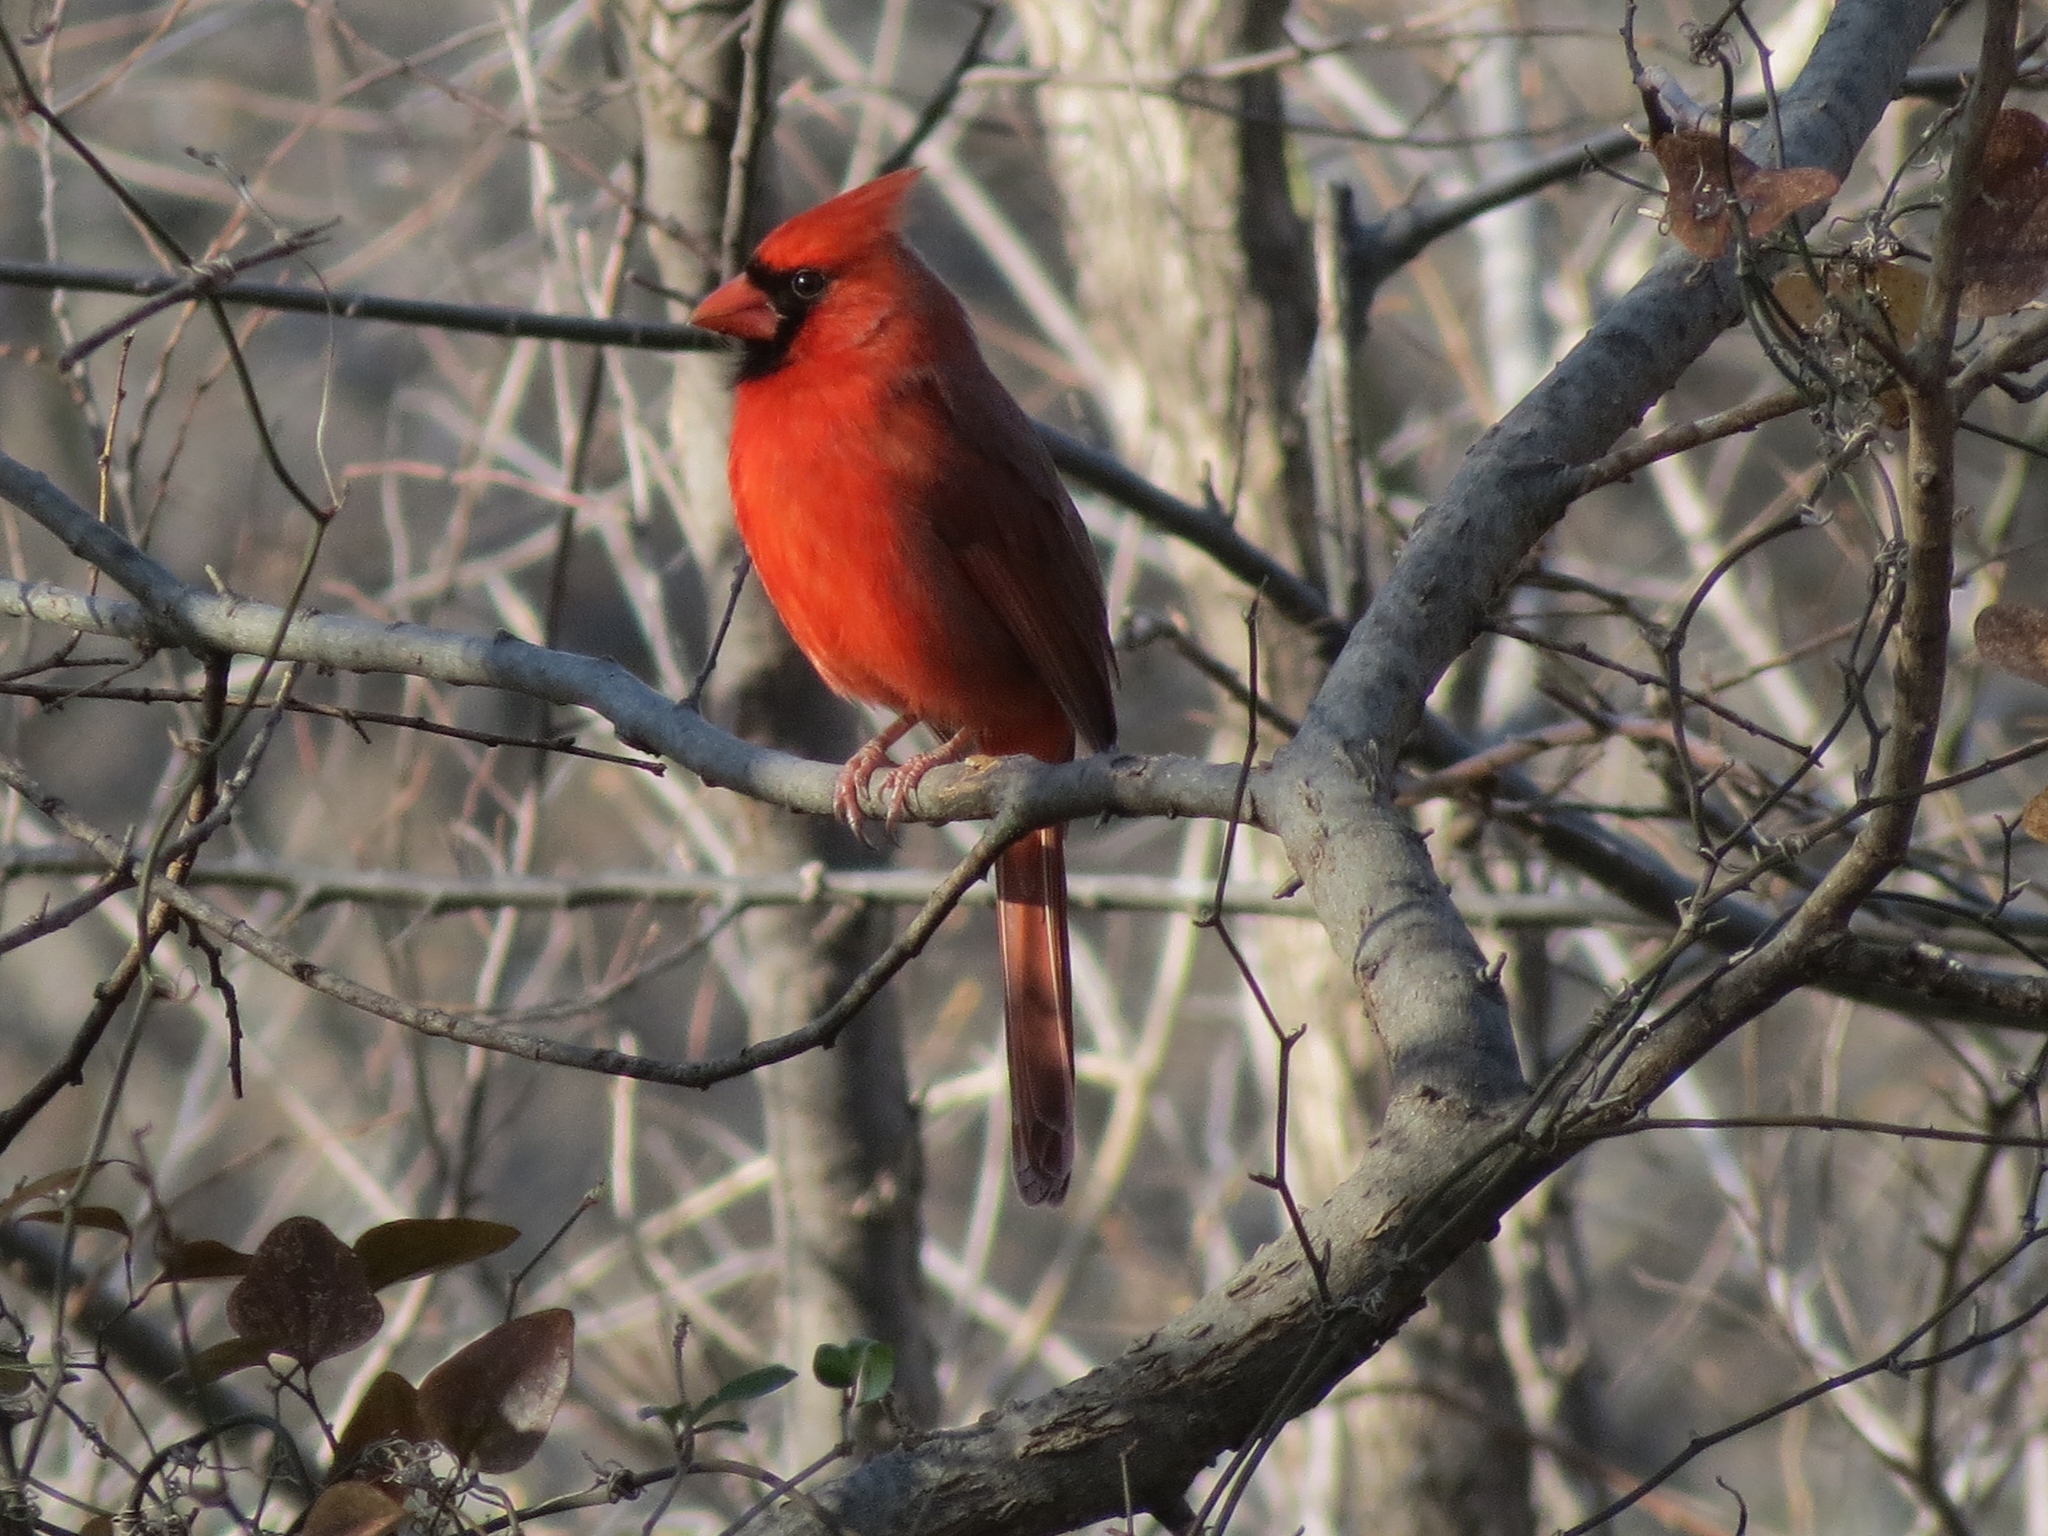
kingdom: Animalia
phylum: Chordata
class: Aves
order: Passeriformes
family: Cardinalidae
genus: Cardinalis
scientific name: Cardinalis cardinalis
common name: Northern cardinal
